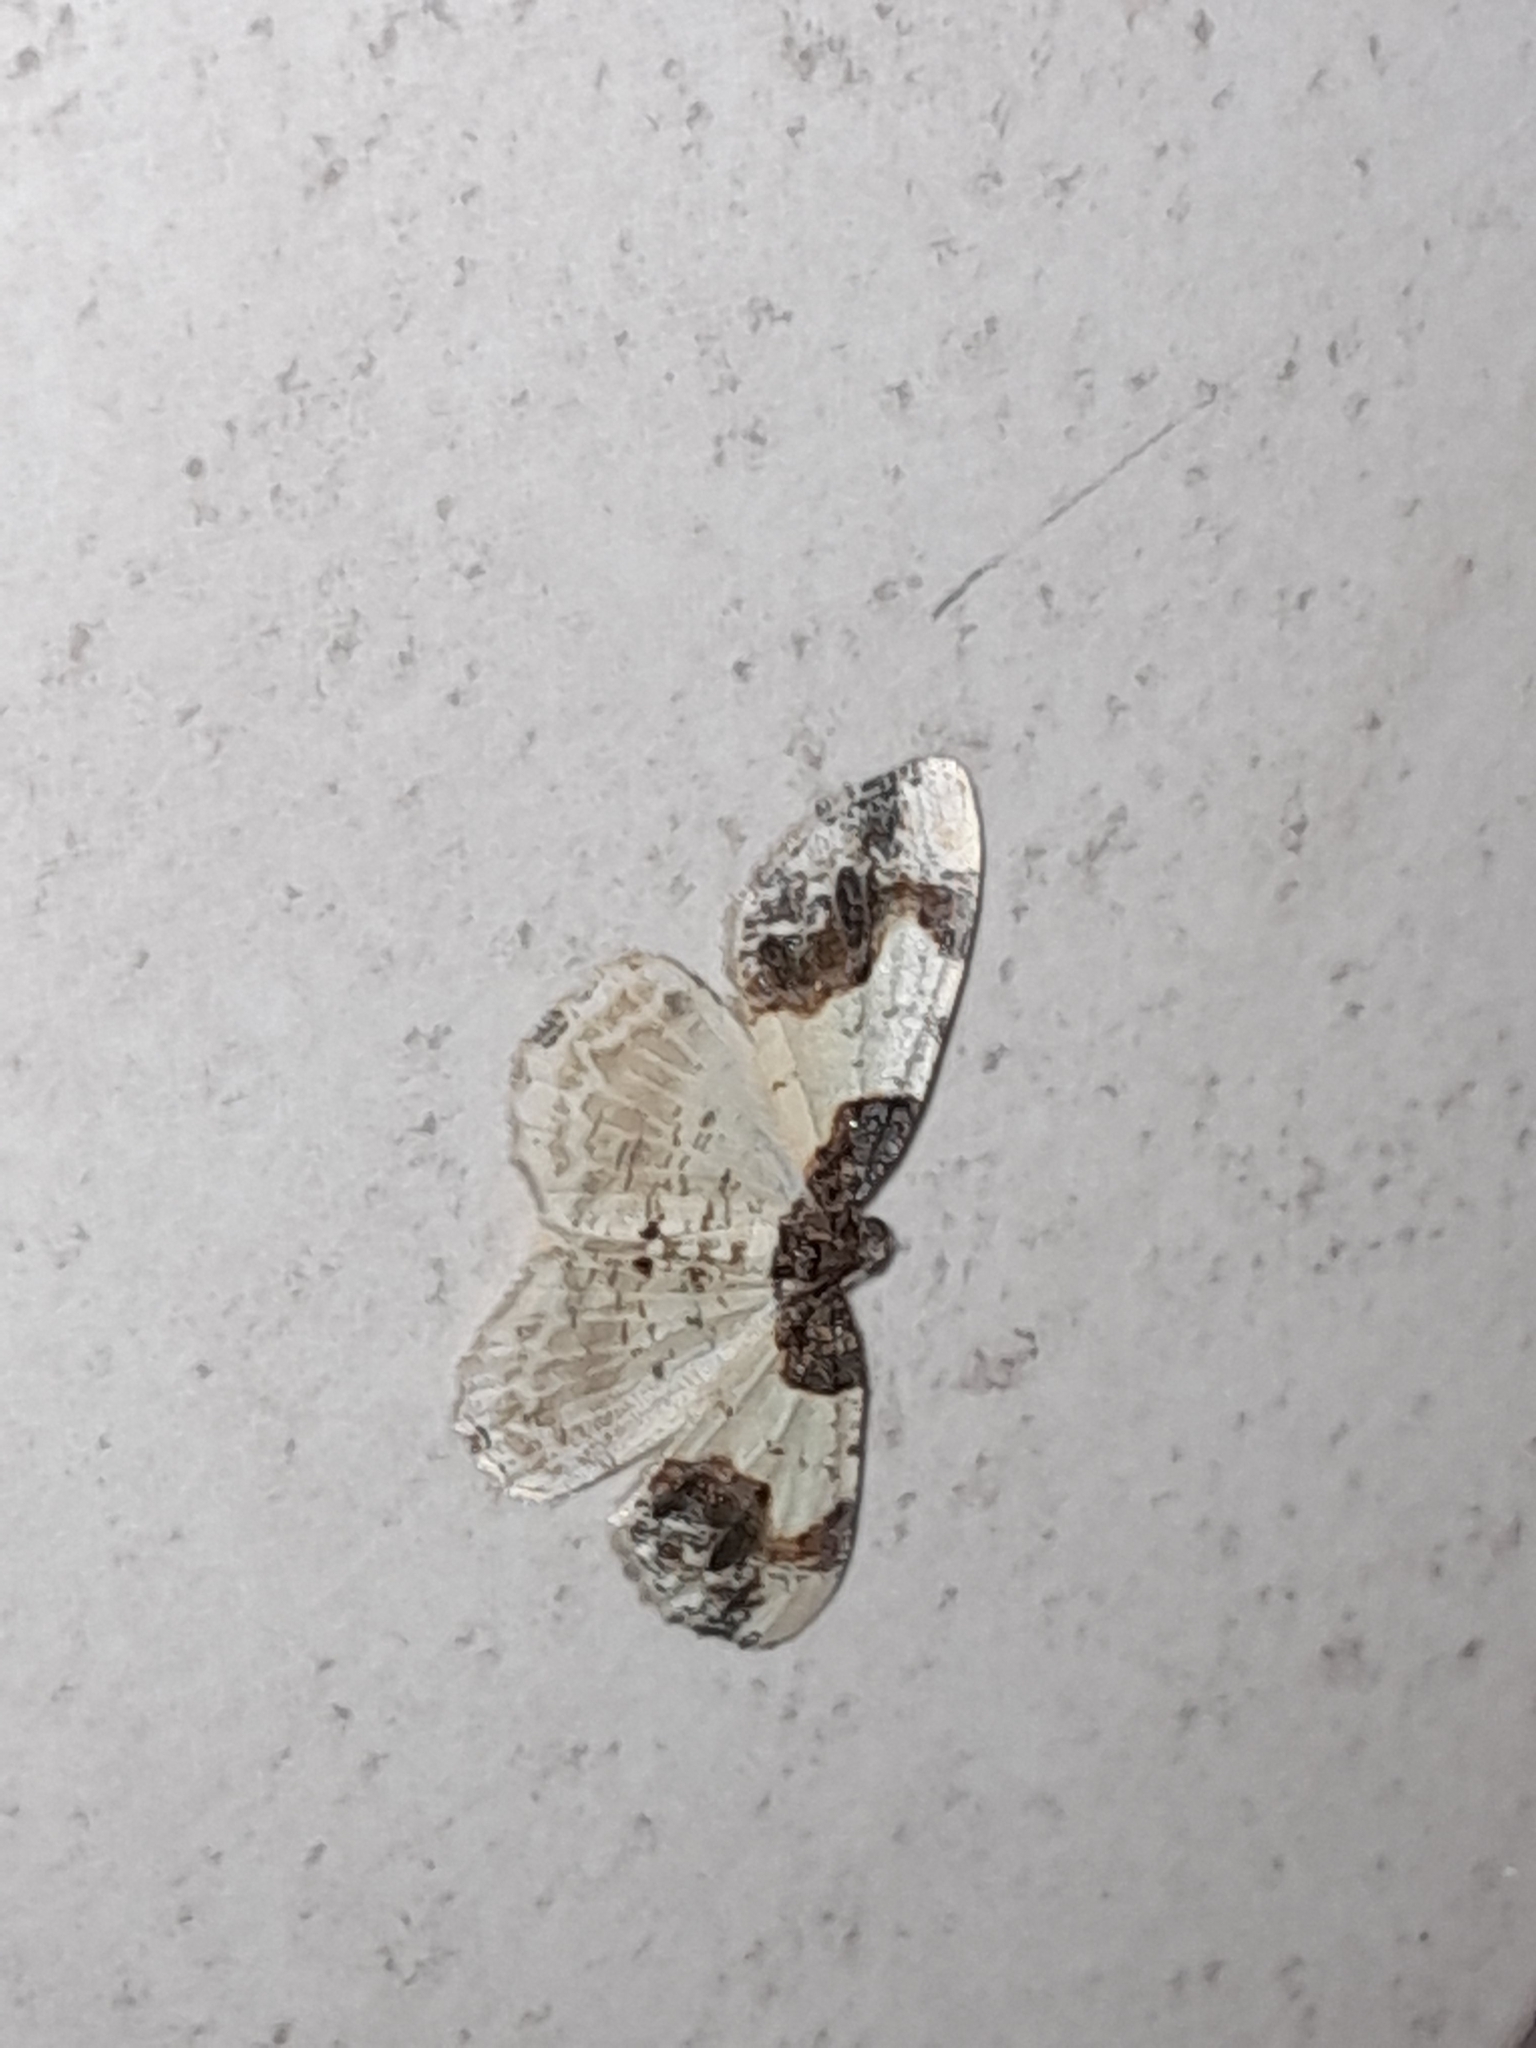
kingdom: Animalia
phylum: Arthropoda
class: Insecta
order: Lepidoptera
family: Geometridae
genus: Ligdia
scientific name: Ligdia adustata
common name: Scorched carpet
